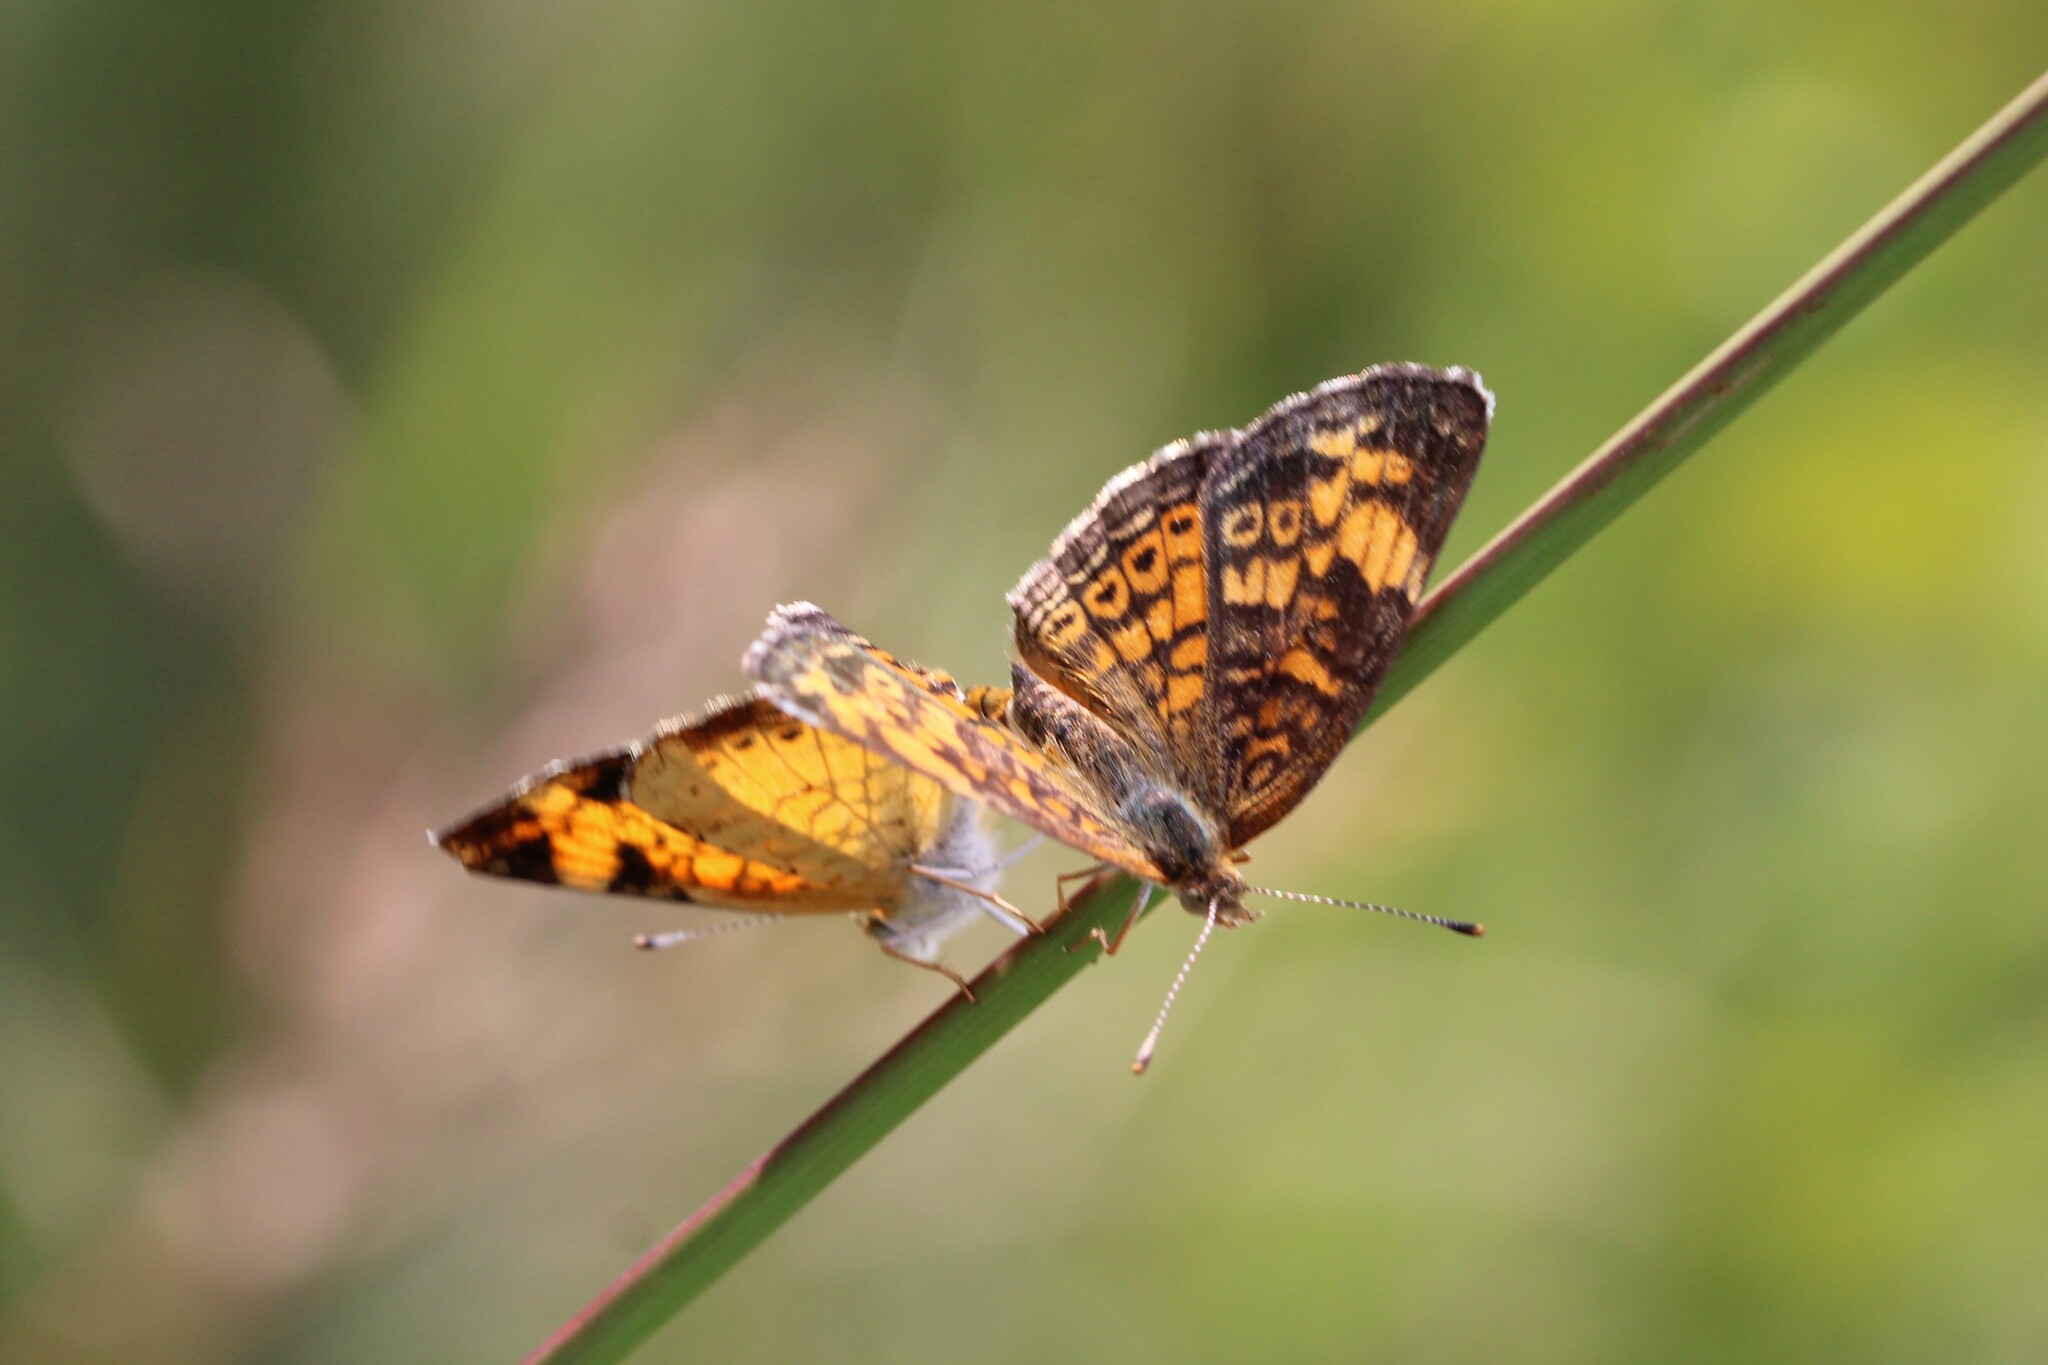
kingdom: Animalia
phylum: Arthropoda
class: Insecta
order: Lepidoptera
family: Nymphalidae
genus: Phyciodes
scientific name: Phyciodes tharos
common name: Pearl crescent
